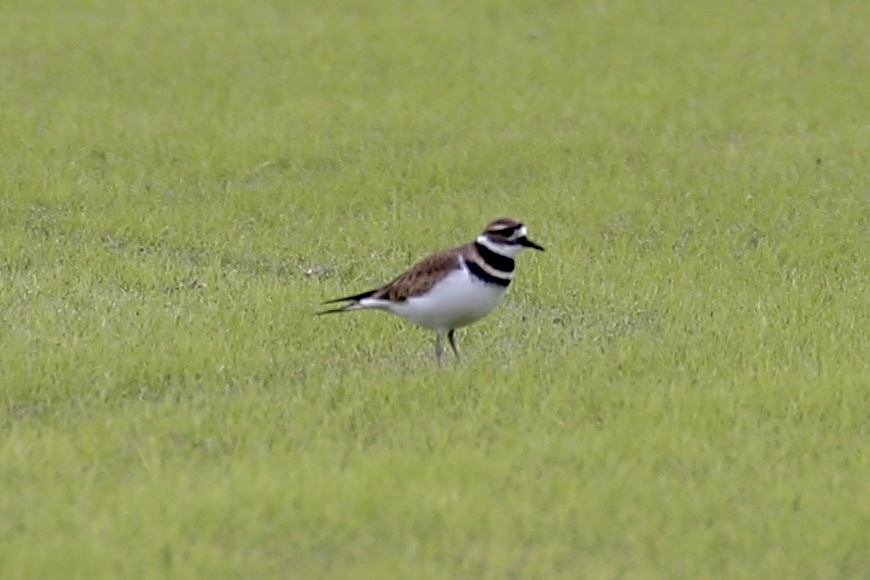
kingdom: Animalia
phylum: Chordata
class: Aves
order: Charadriiformes
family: Charadriidae
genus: Charadrius
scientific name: Charadrius vociferus
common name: Killdeer
